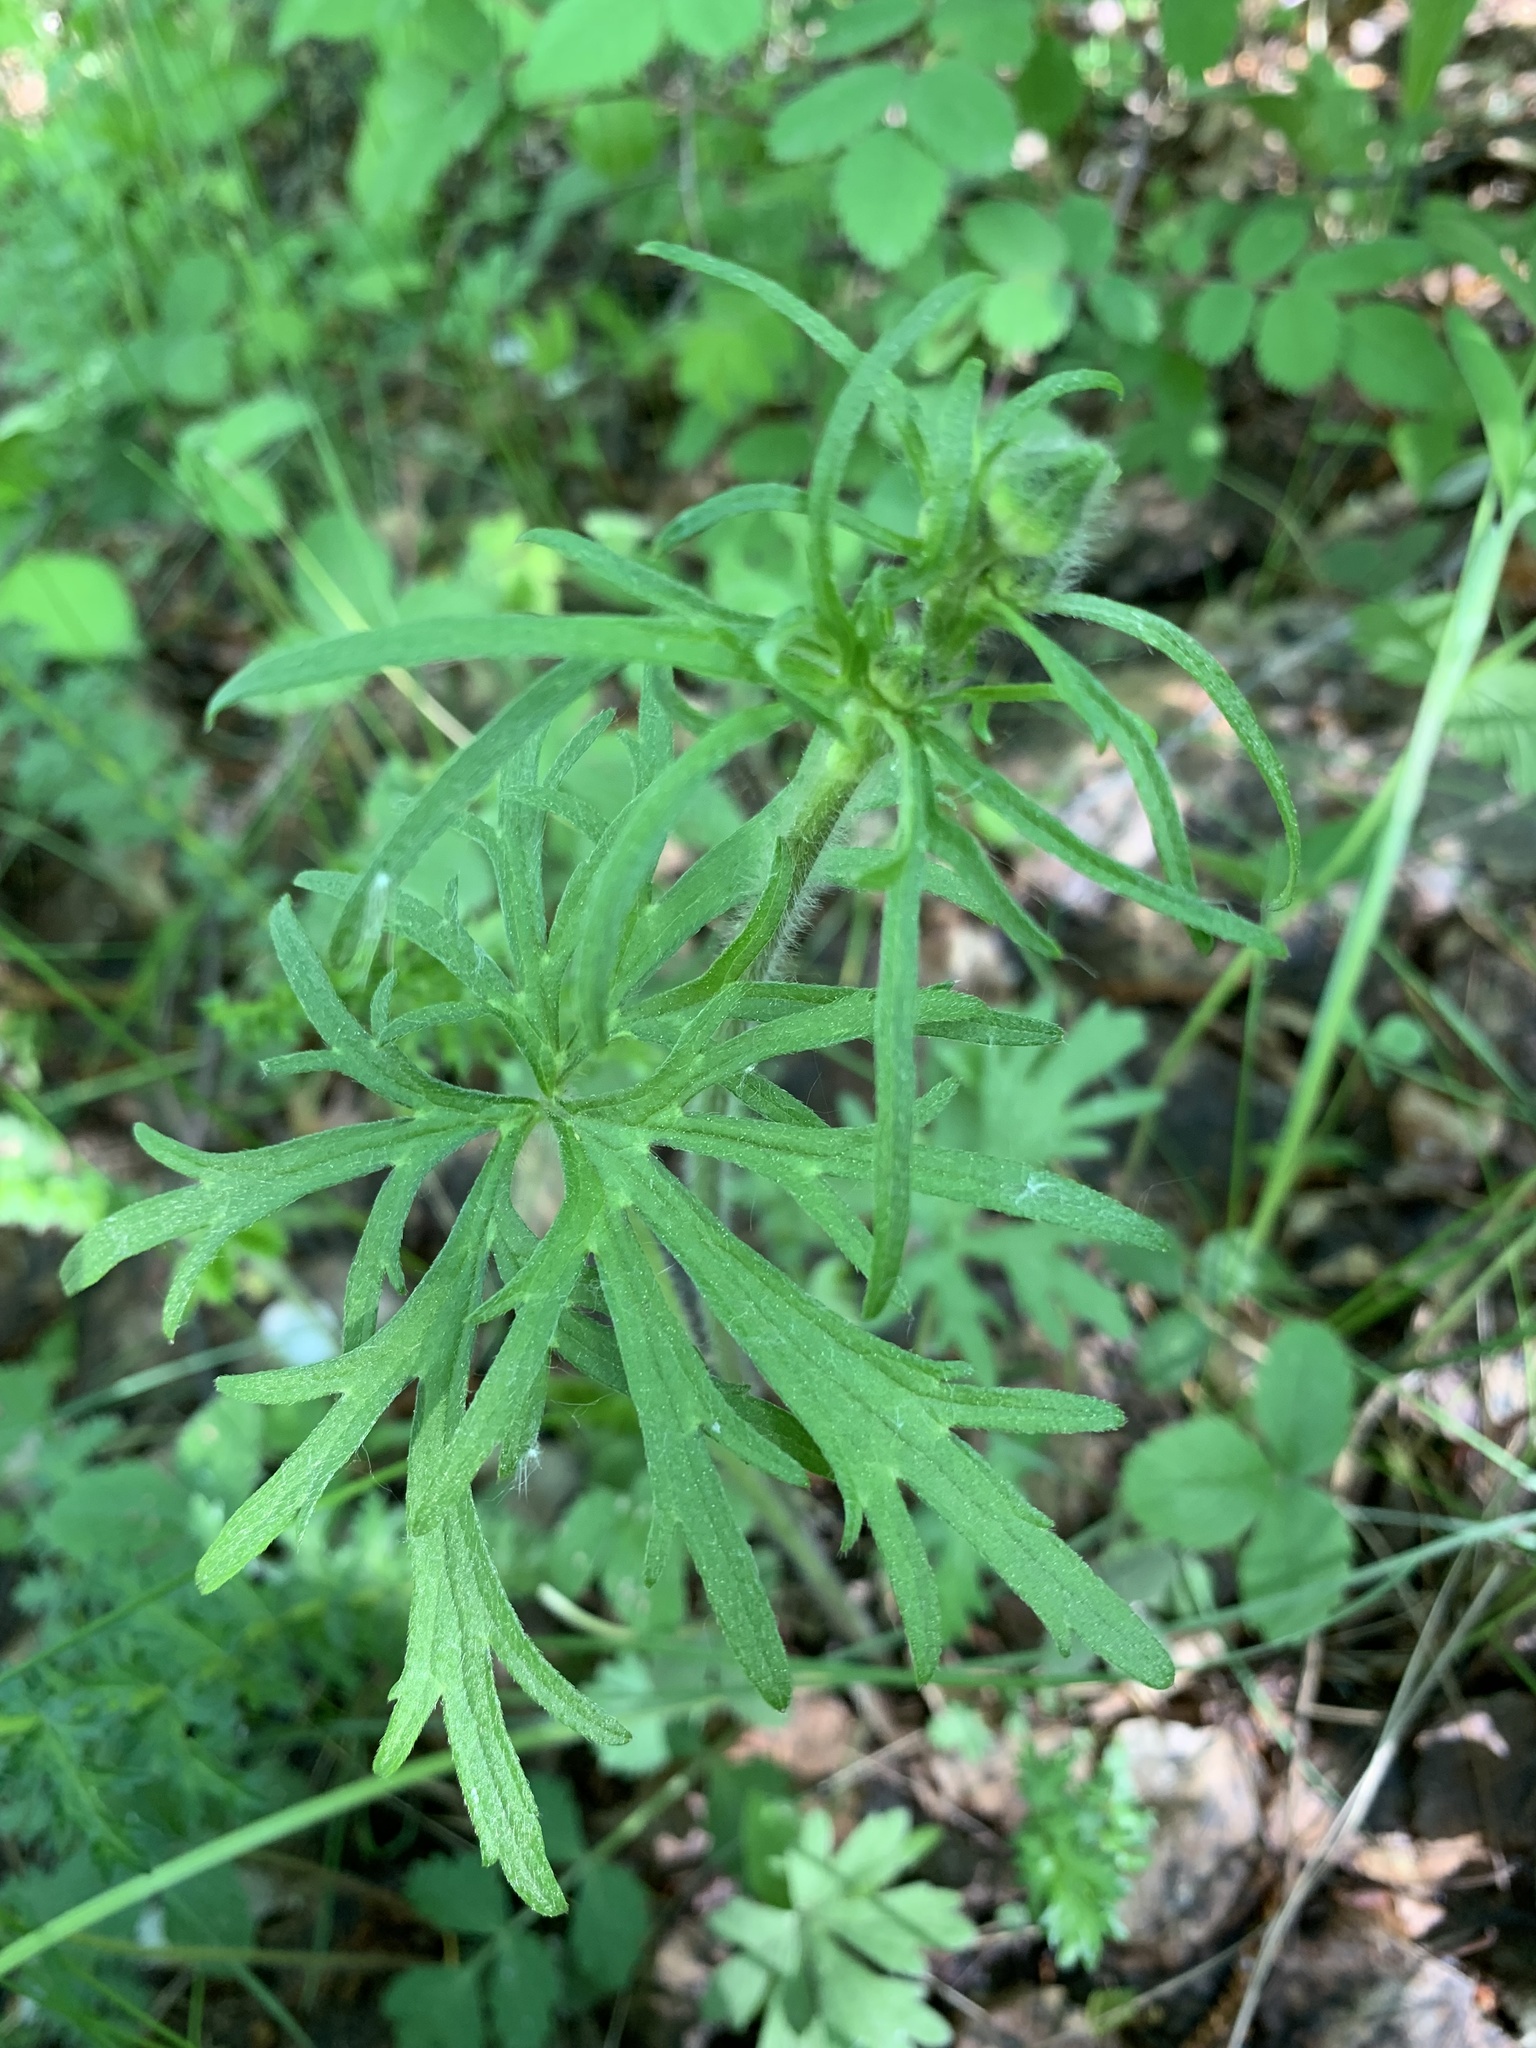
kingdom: Plantae
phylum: Tracheophyta
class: Magnoliopsida
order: Ranunculales
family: Ranunculaceae
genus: Ranunculus
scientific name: Ranunculus polyanthemos
